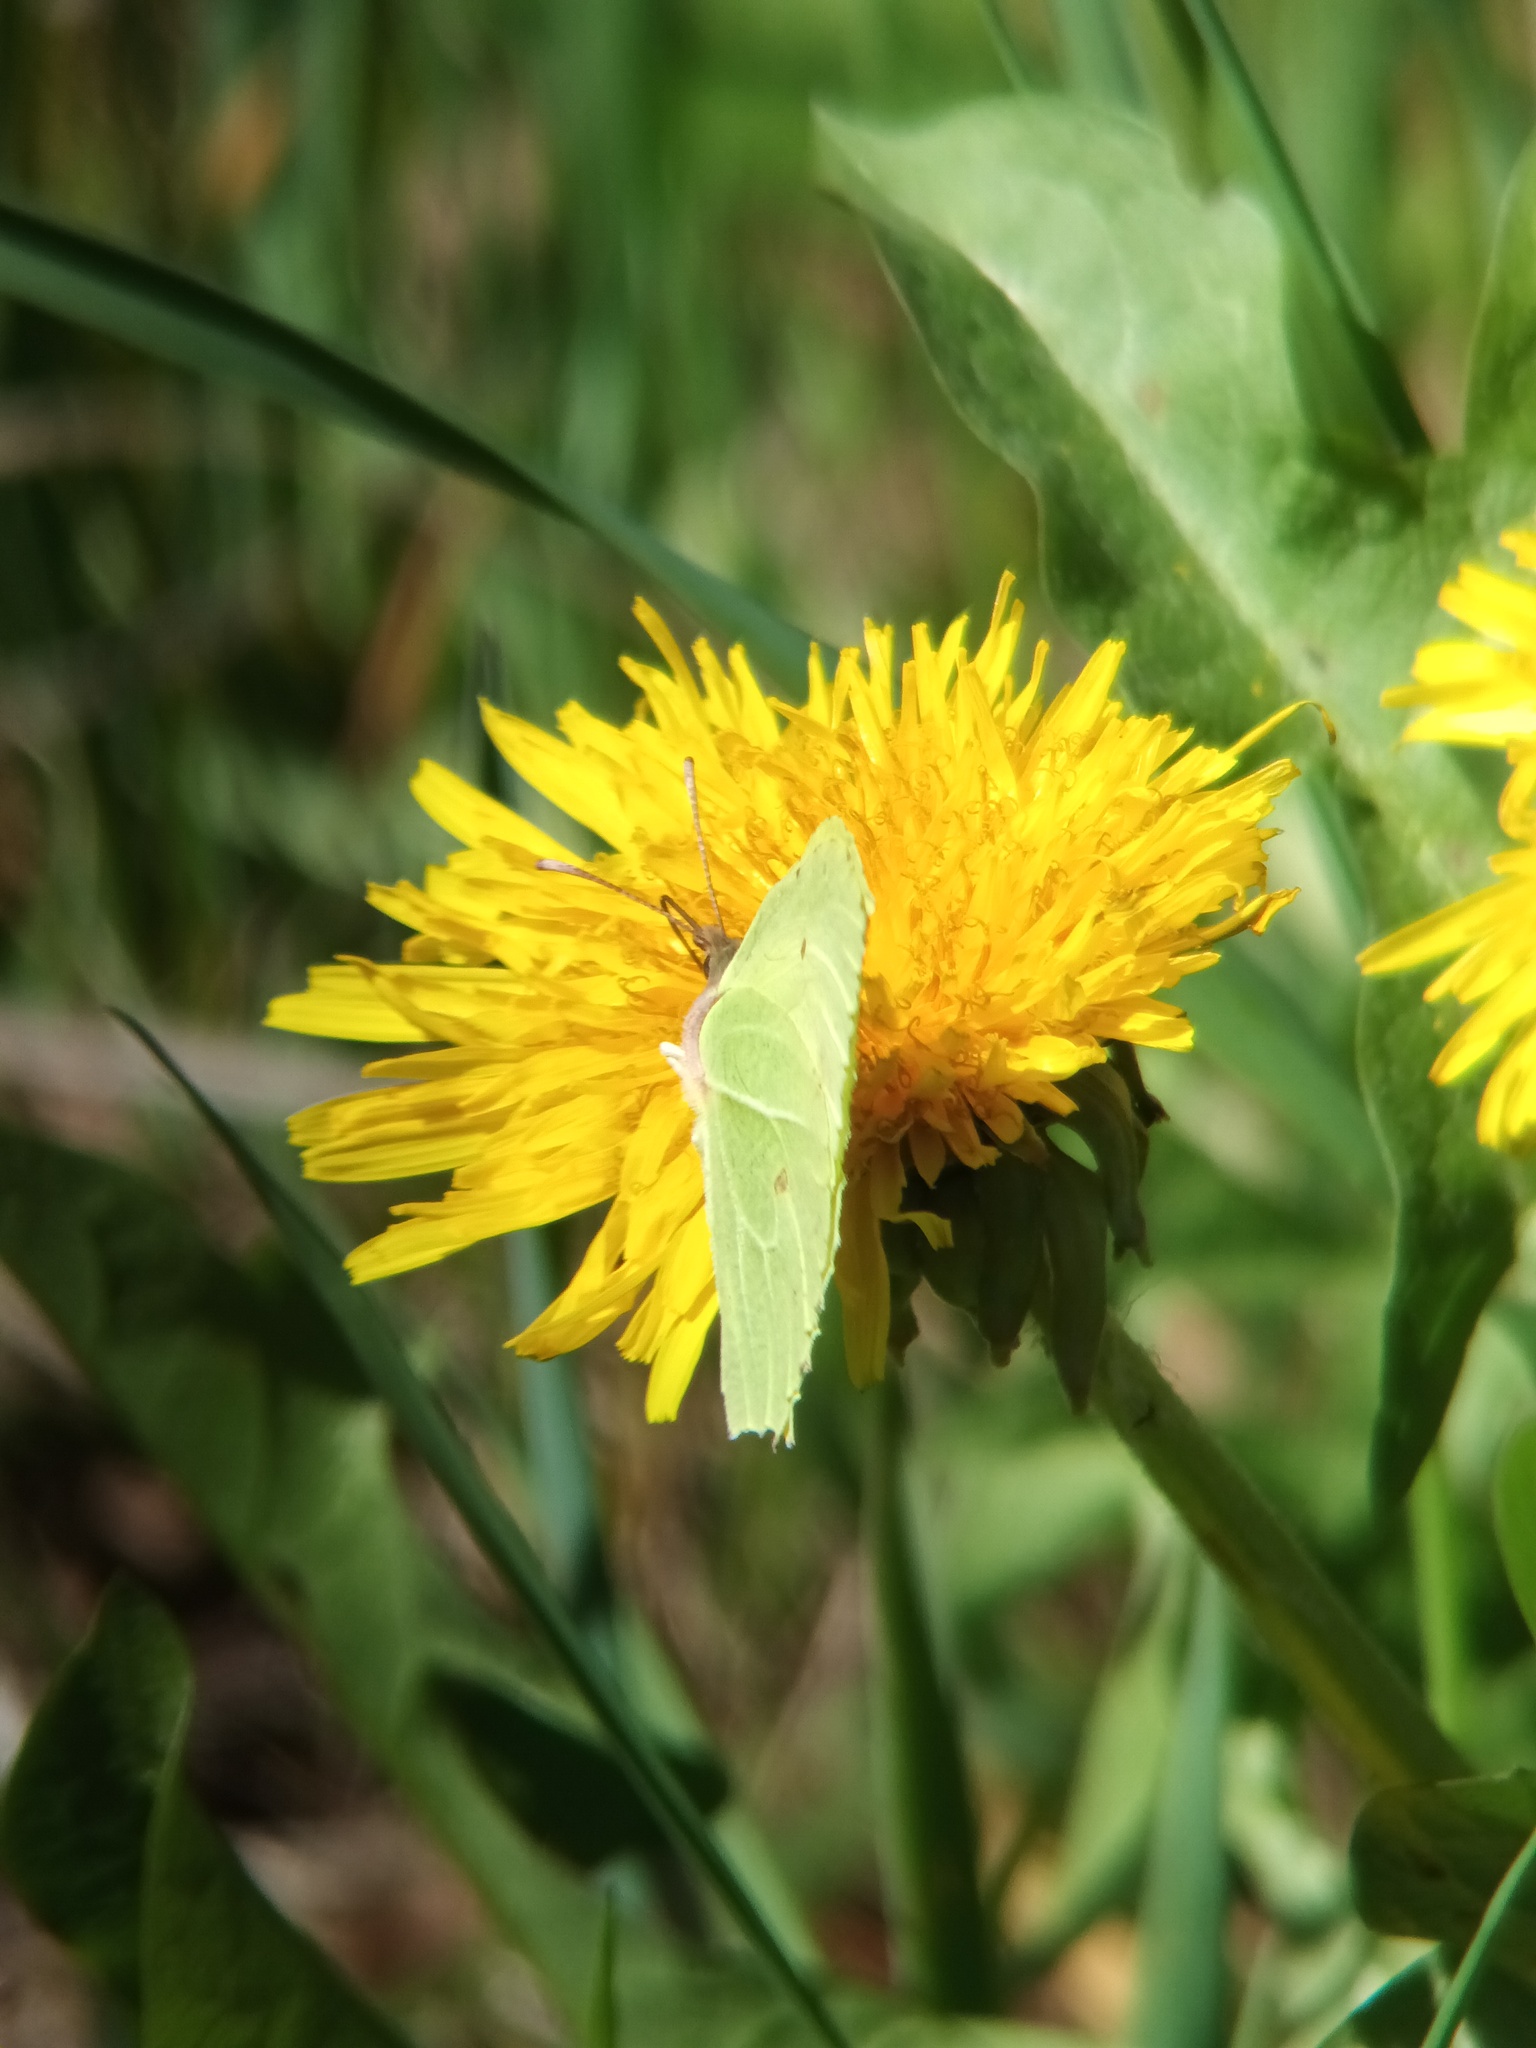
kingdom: Animalia
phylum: Arthropoda
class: Insecta
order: Lepidoptera
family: Pieridae
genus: Gonepteryx
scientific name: Gonepteryx rhamni
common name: Brimstone
